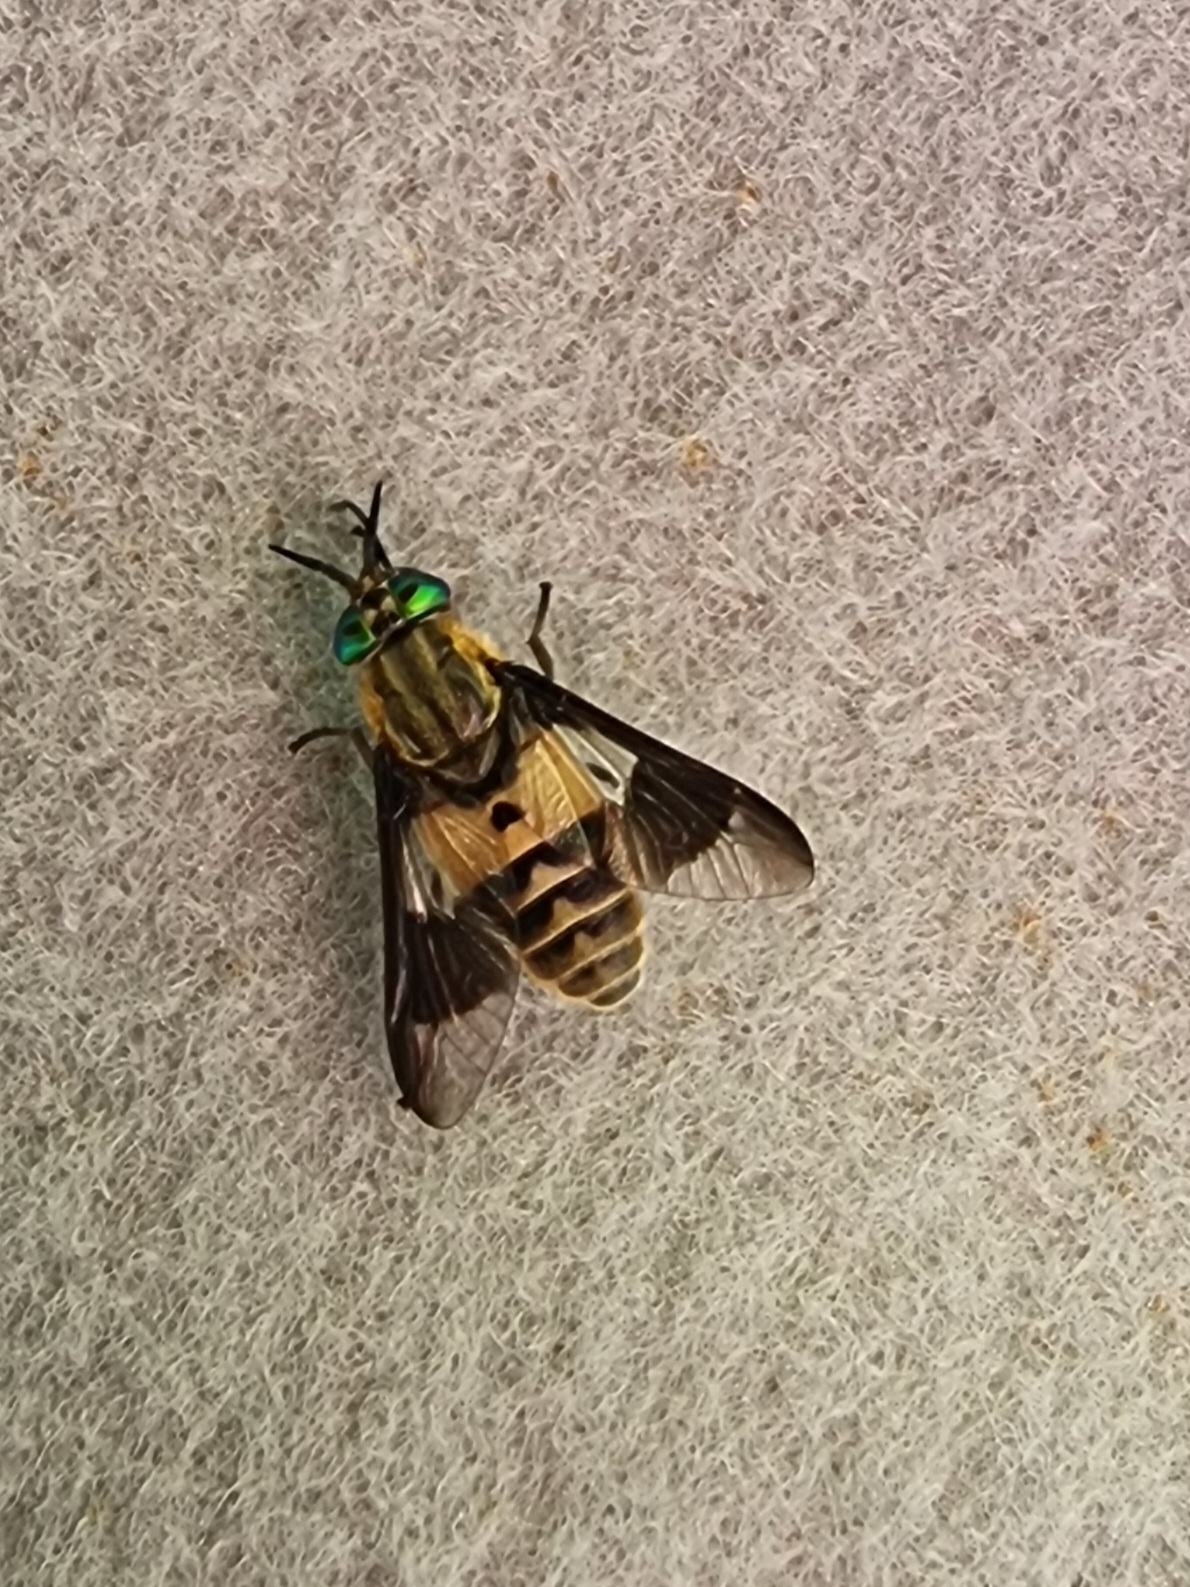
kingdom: Animalia
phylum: Arthropoda
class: Insecta
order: Diptera
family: Tabanidae
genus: Chrysops
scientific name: Chrysops viduatus
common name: Square-spot deerfly
